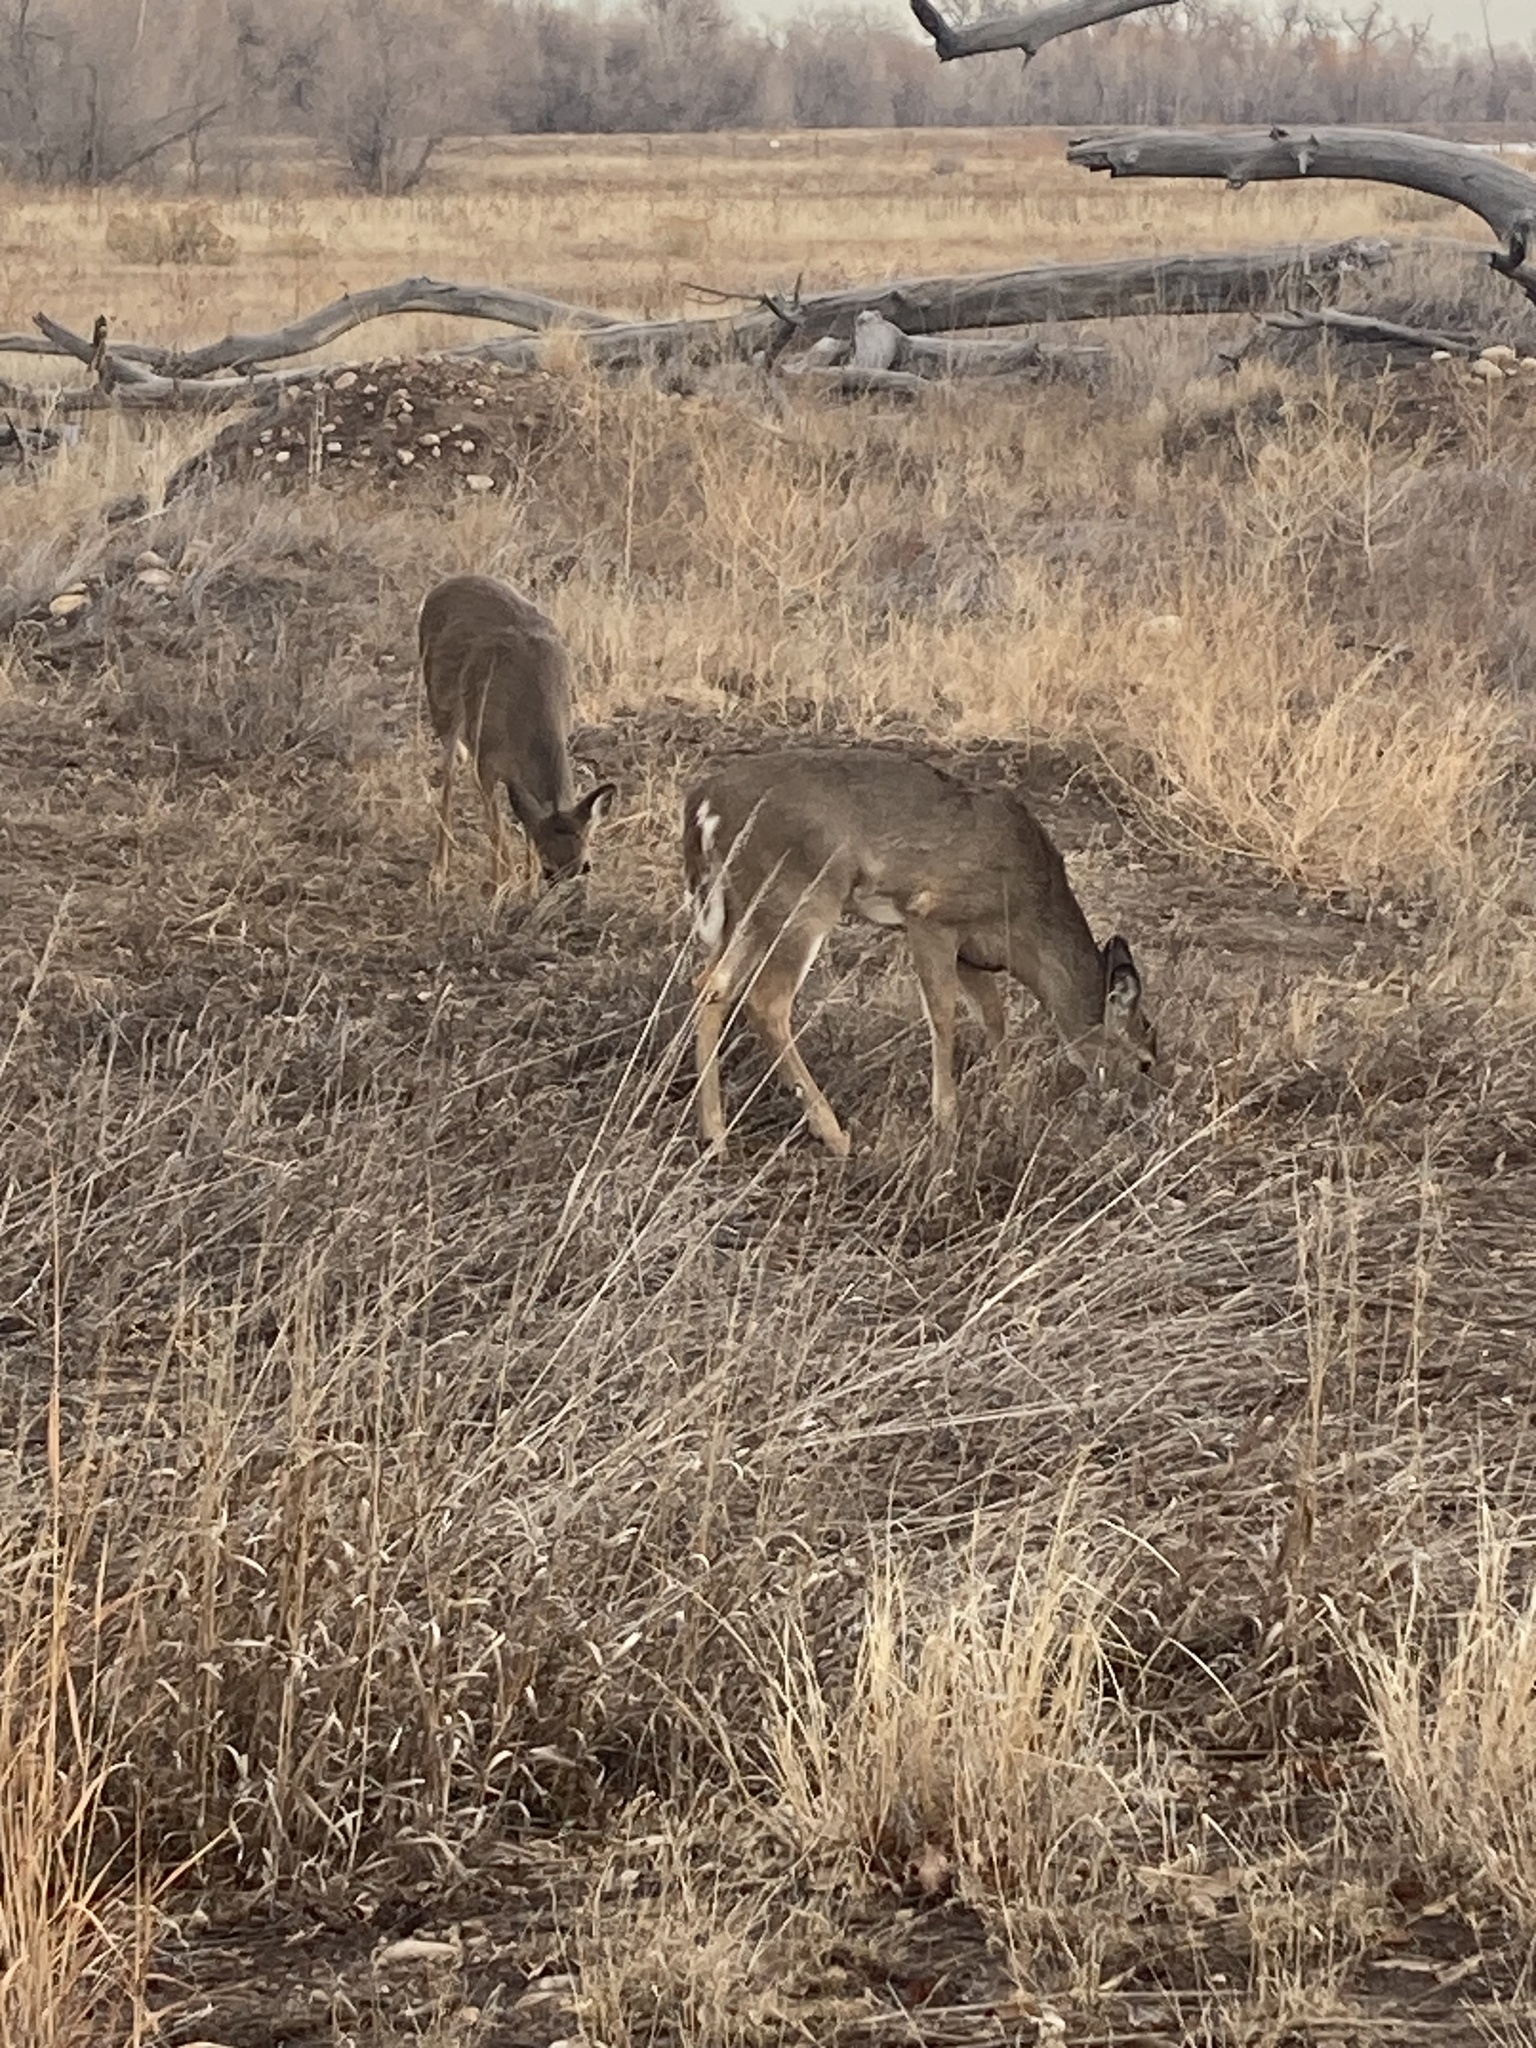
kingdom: Animalia
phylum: Chordata
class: Mammalia
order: Artiodactyla
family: Cervidae
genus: Odocoileus
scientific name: Odocoileus virginianus
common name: White-tailed deer
